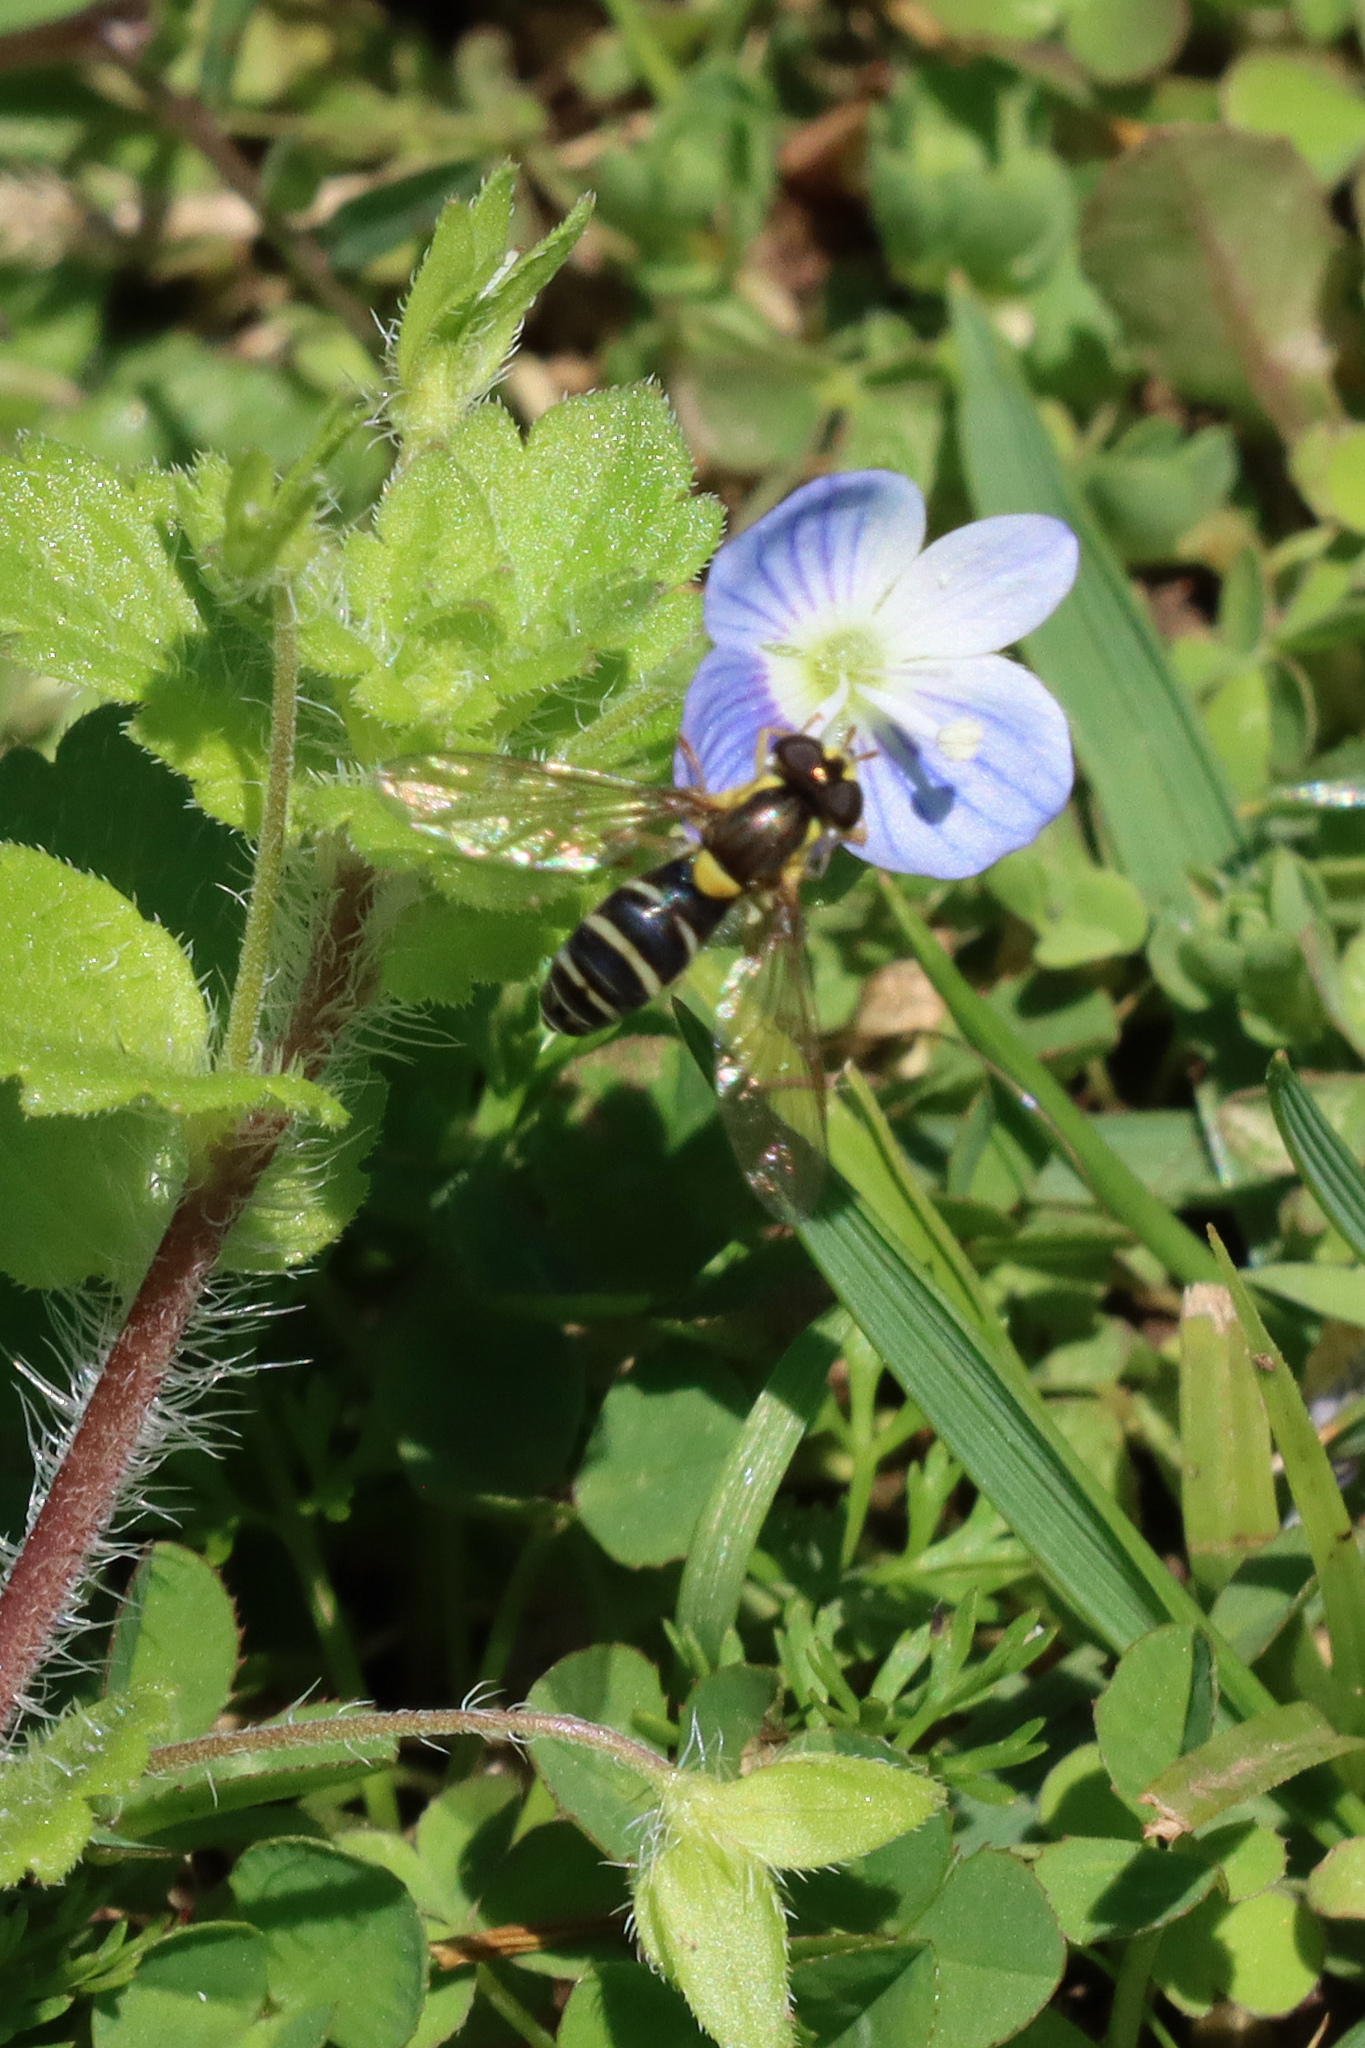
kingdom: Animalia
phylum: Arthropoda
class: Insecta
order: Diptera
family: Syrphidae
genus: Sphaerophoria
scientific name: Sphaerophoria scripta
